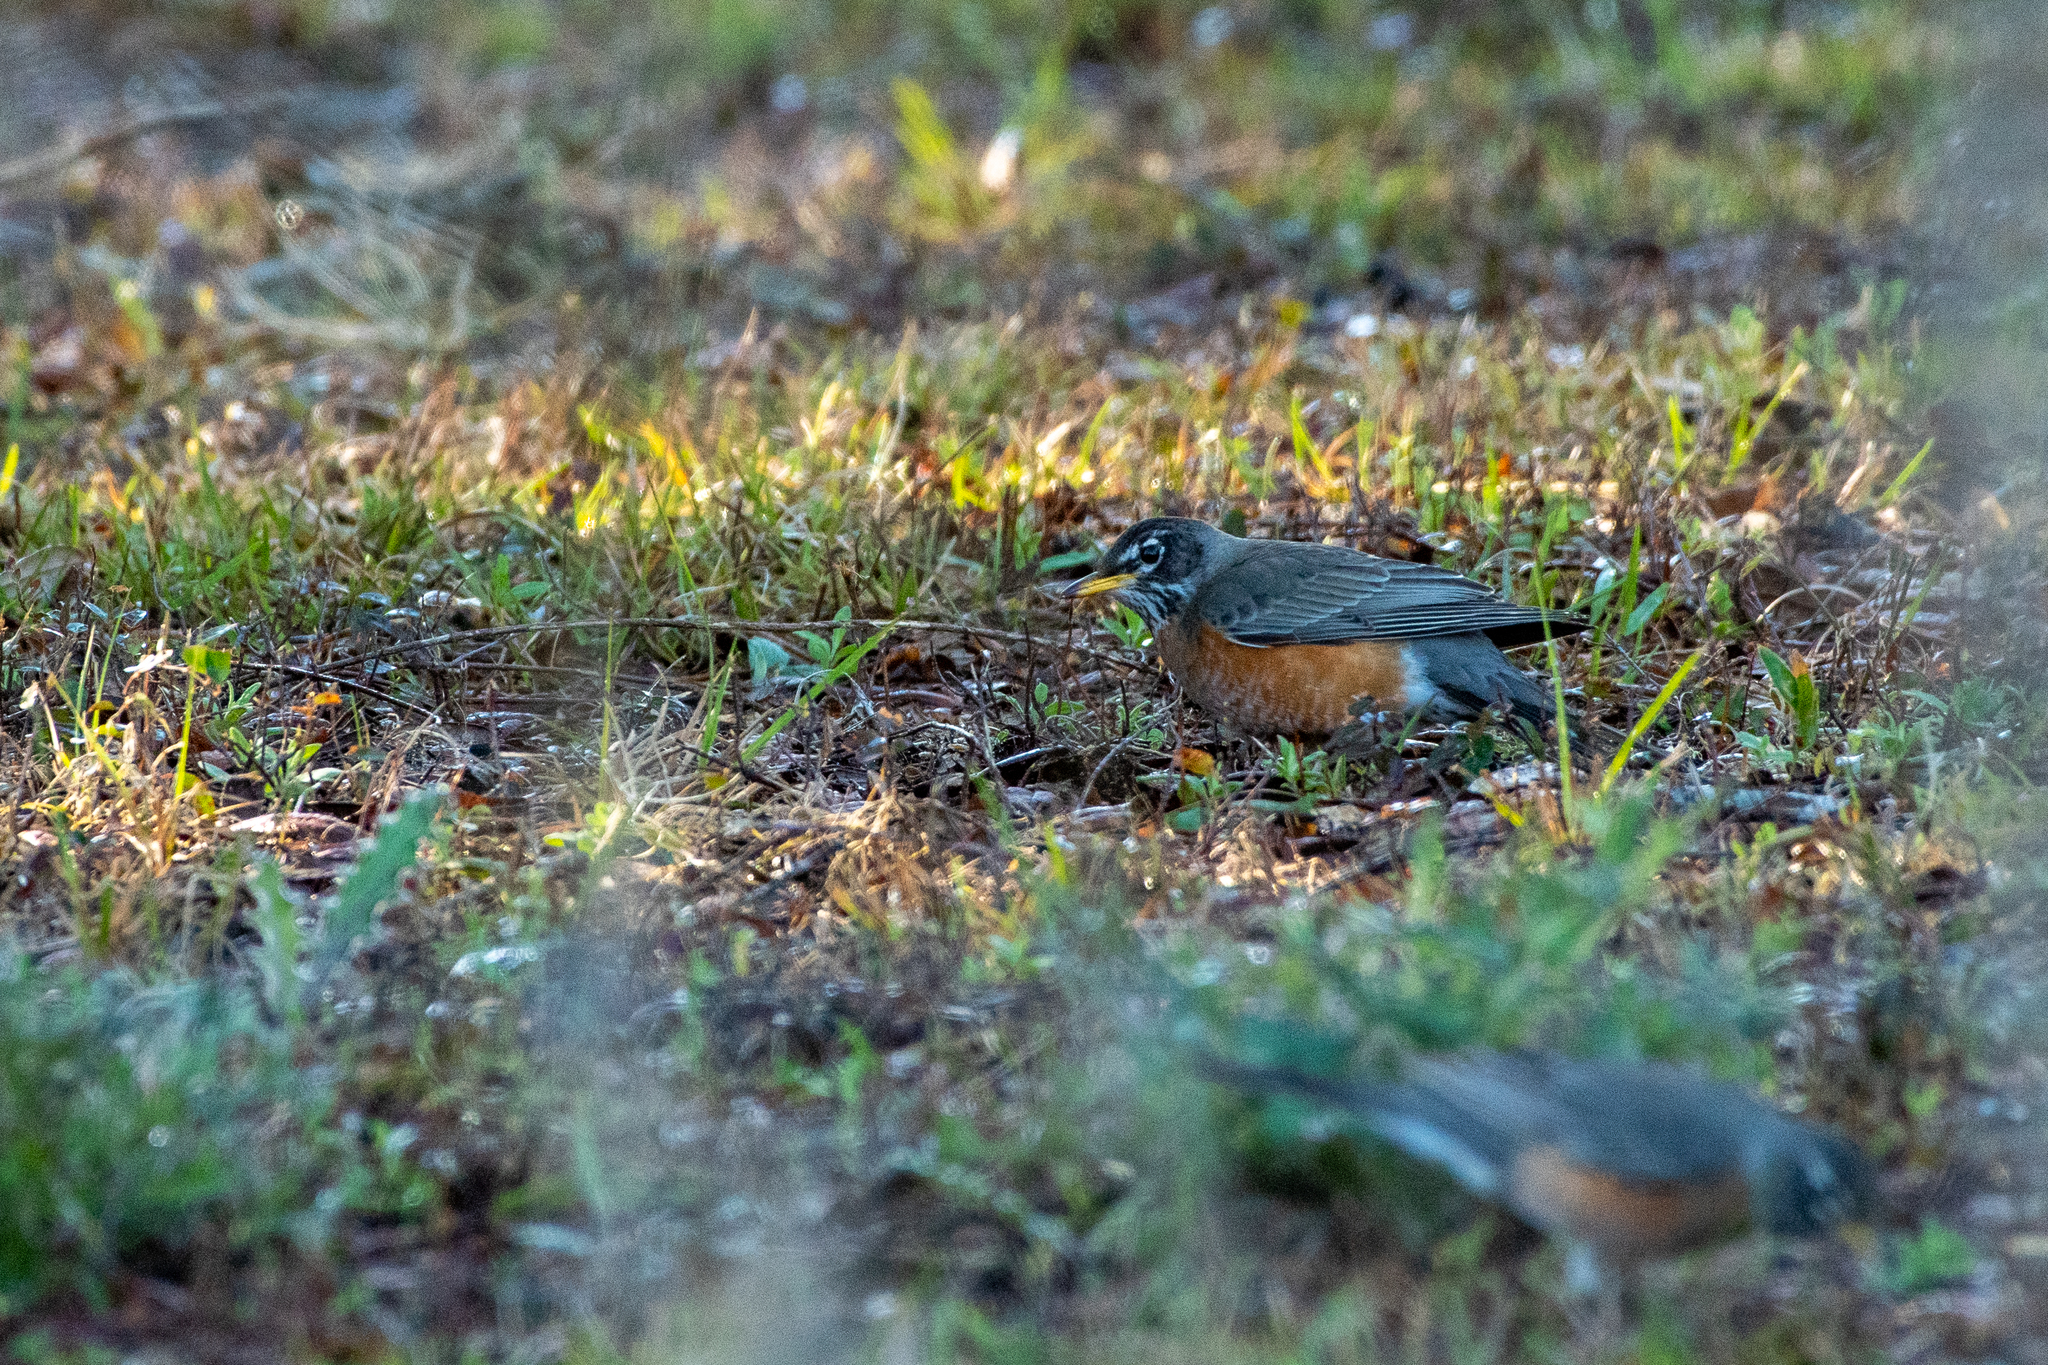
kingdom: Animalia
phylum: Chordata
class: Aves
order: Passeriformes
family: Turdidae
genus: Turdus
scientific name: Turdus migratorius
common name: American robin
